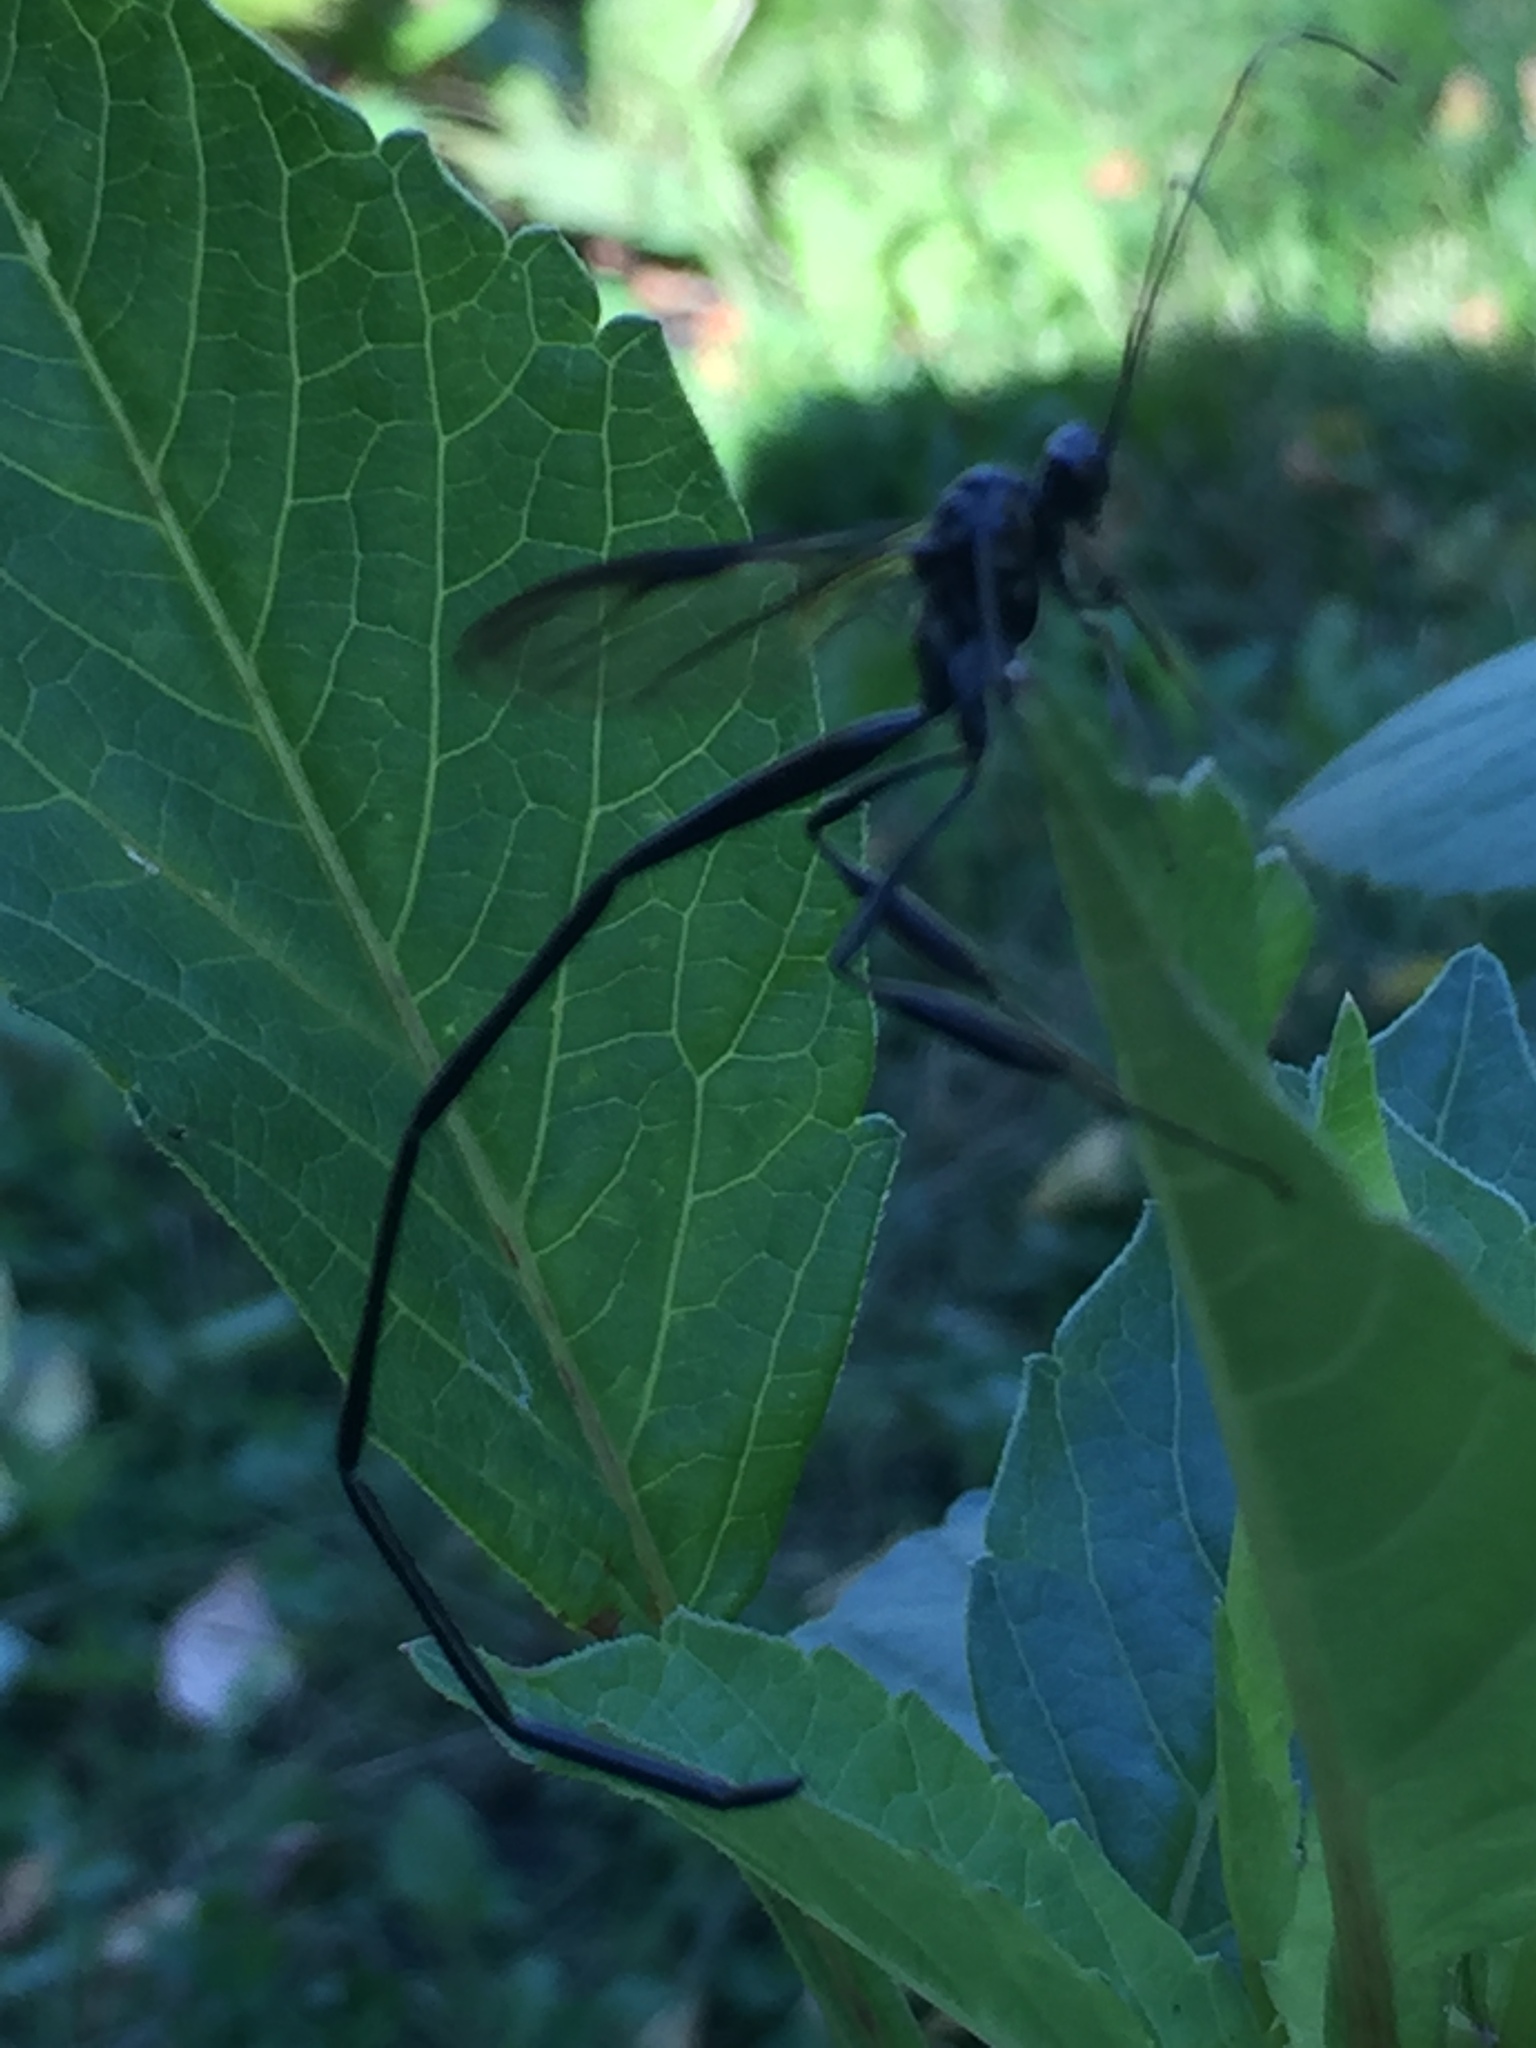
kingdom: Animalia
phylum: Arthropoda
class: Insecta
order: Hymenoptera
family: Pelecinidae
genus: Pelecinus
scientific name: Pelecinus polyturator
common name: American pelecinid wasp
